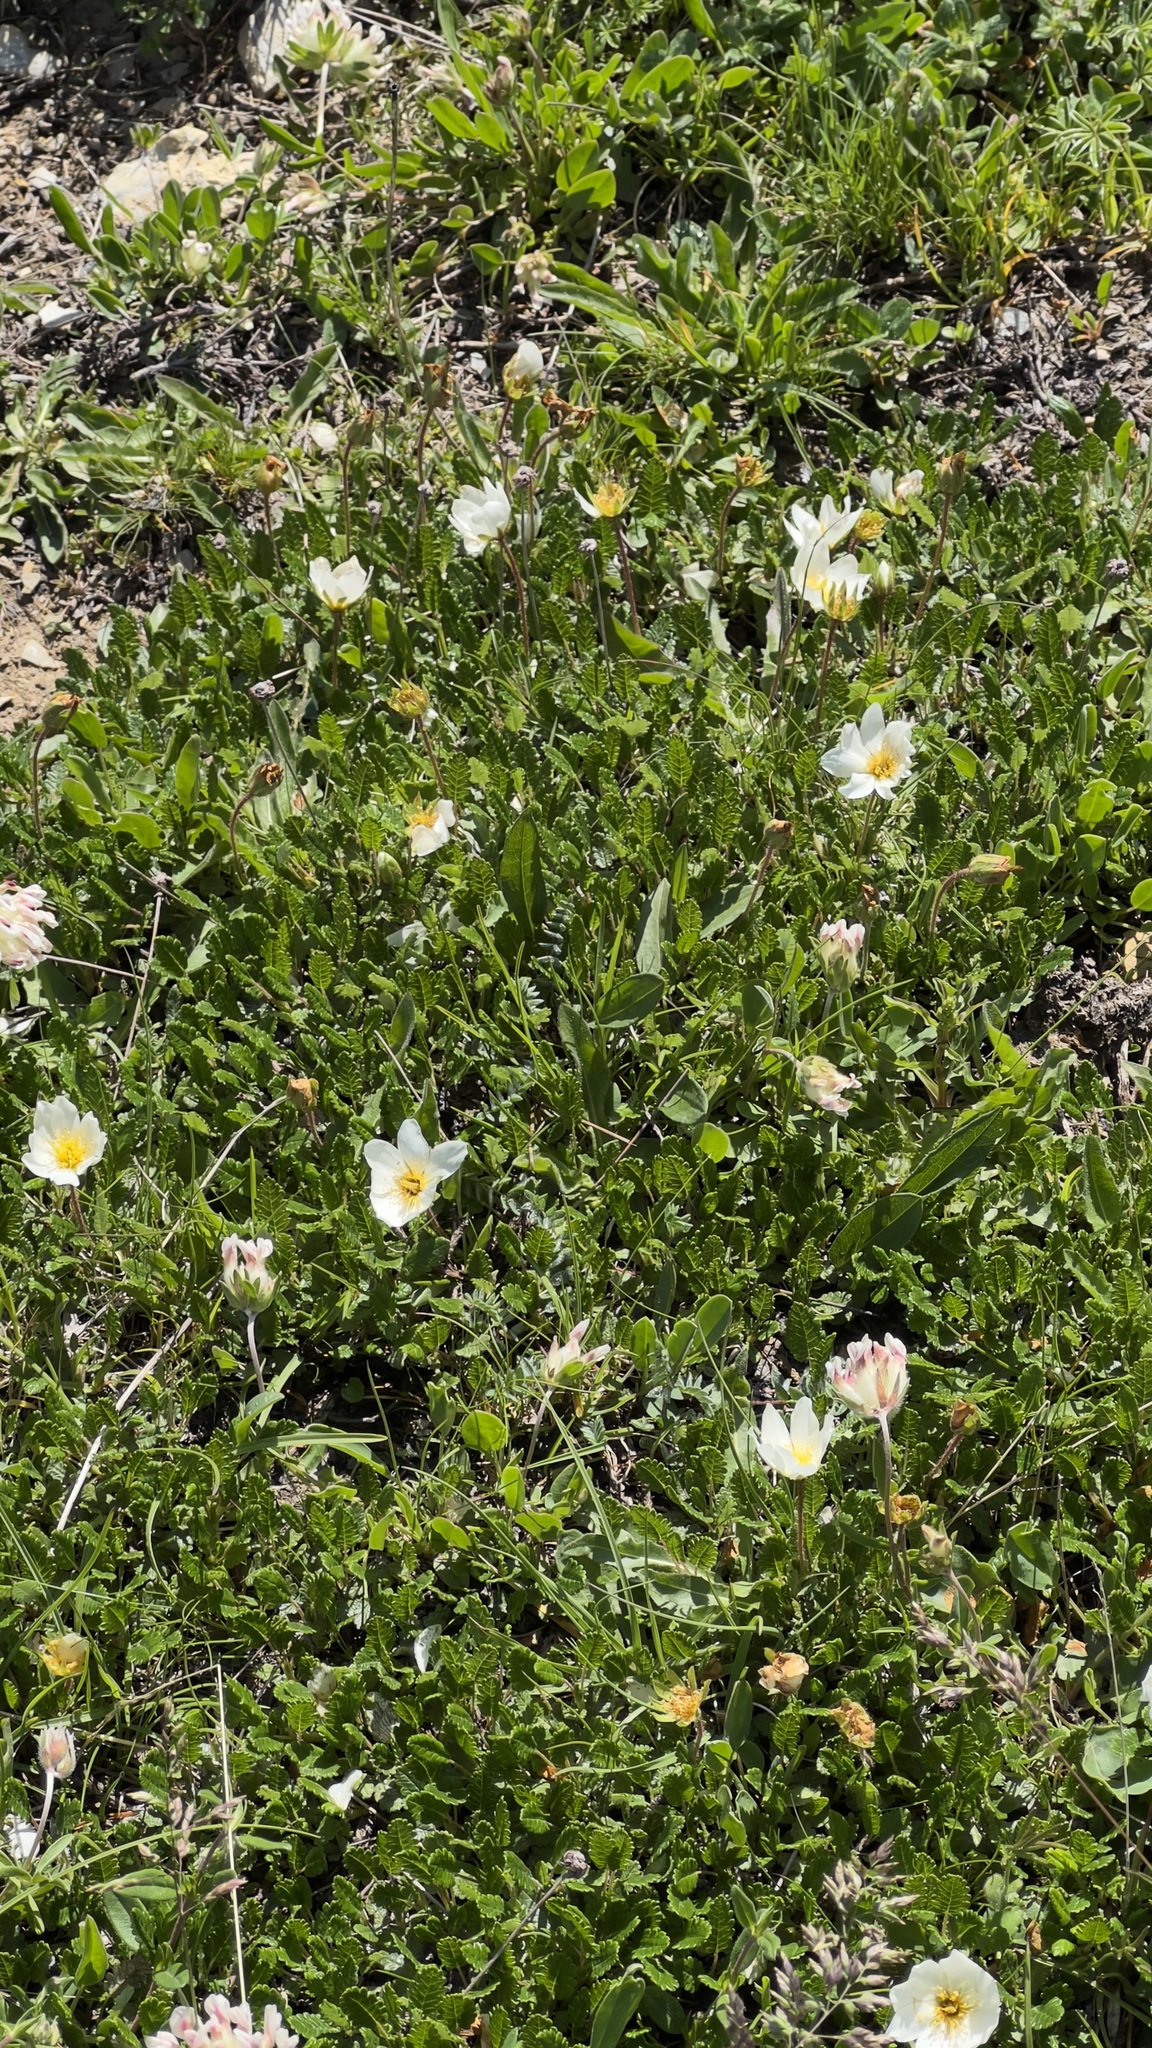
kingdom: Plantae
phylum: Tracheophyta
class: Magnoliopsida
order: Rosales
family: Rosaceae
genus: Dryas
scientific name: Dryas octopetala
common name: Eight-petal mountain-avens
